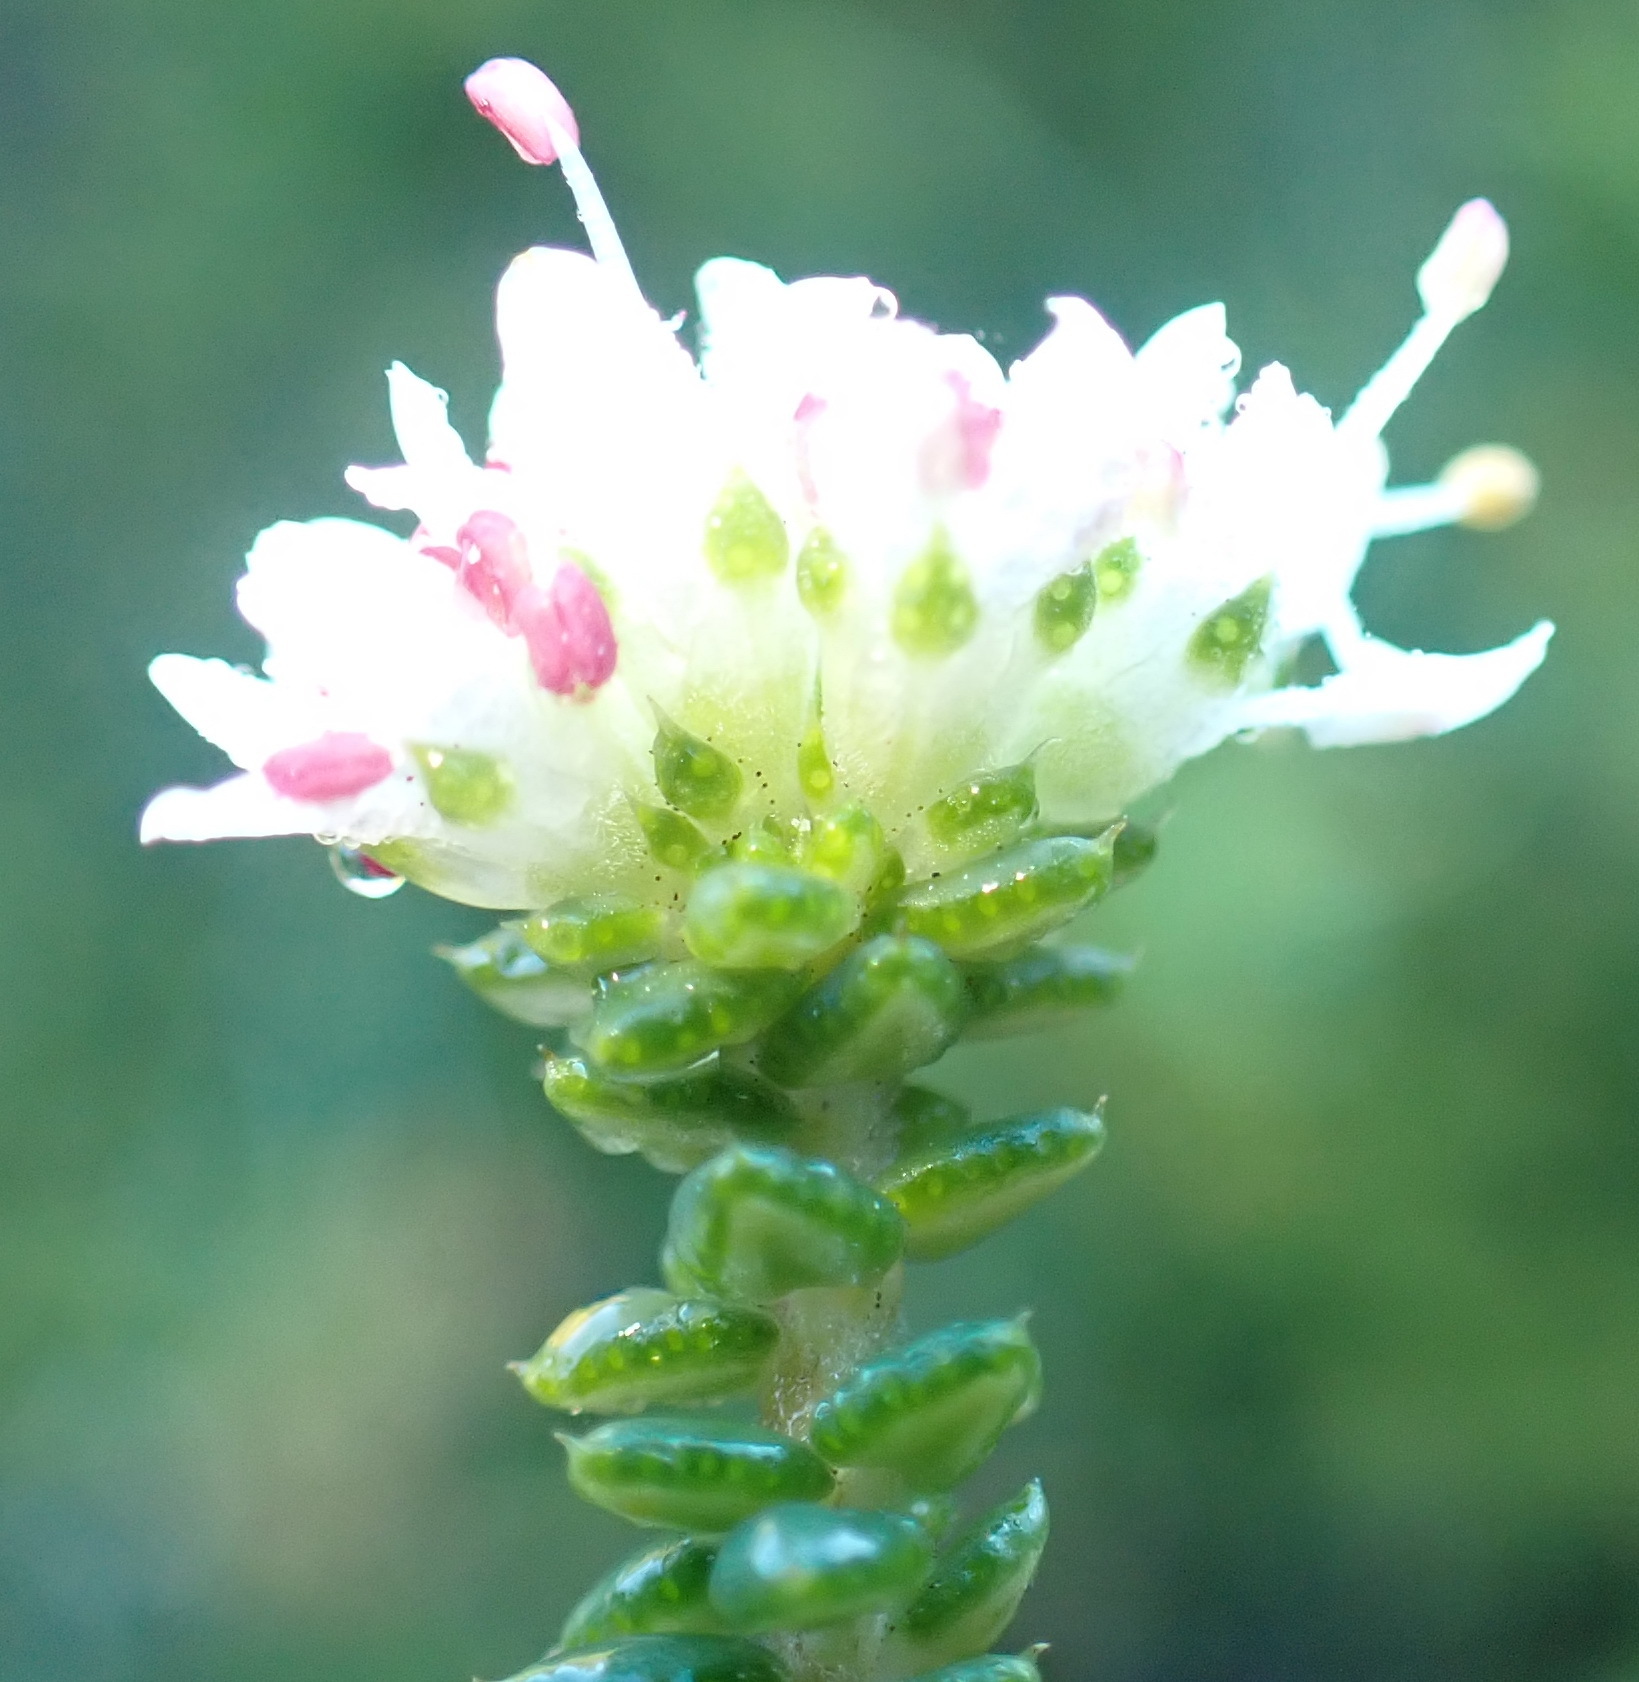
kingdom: Plantae
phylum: Tracheophyta
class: Magnoliopsida
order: Sapindales
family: Rutaceae
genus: Agathosma
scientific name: Agathosma apiculata
